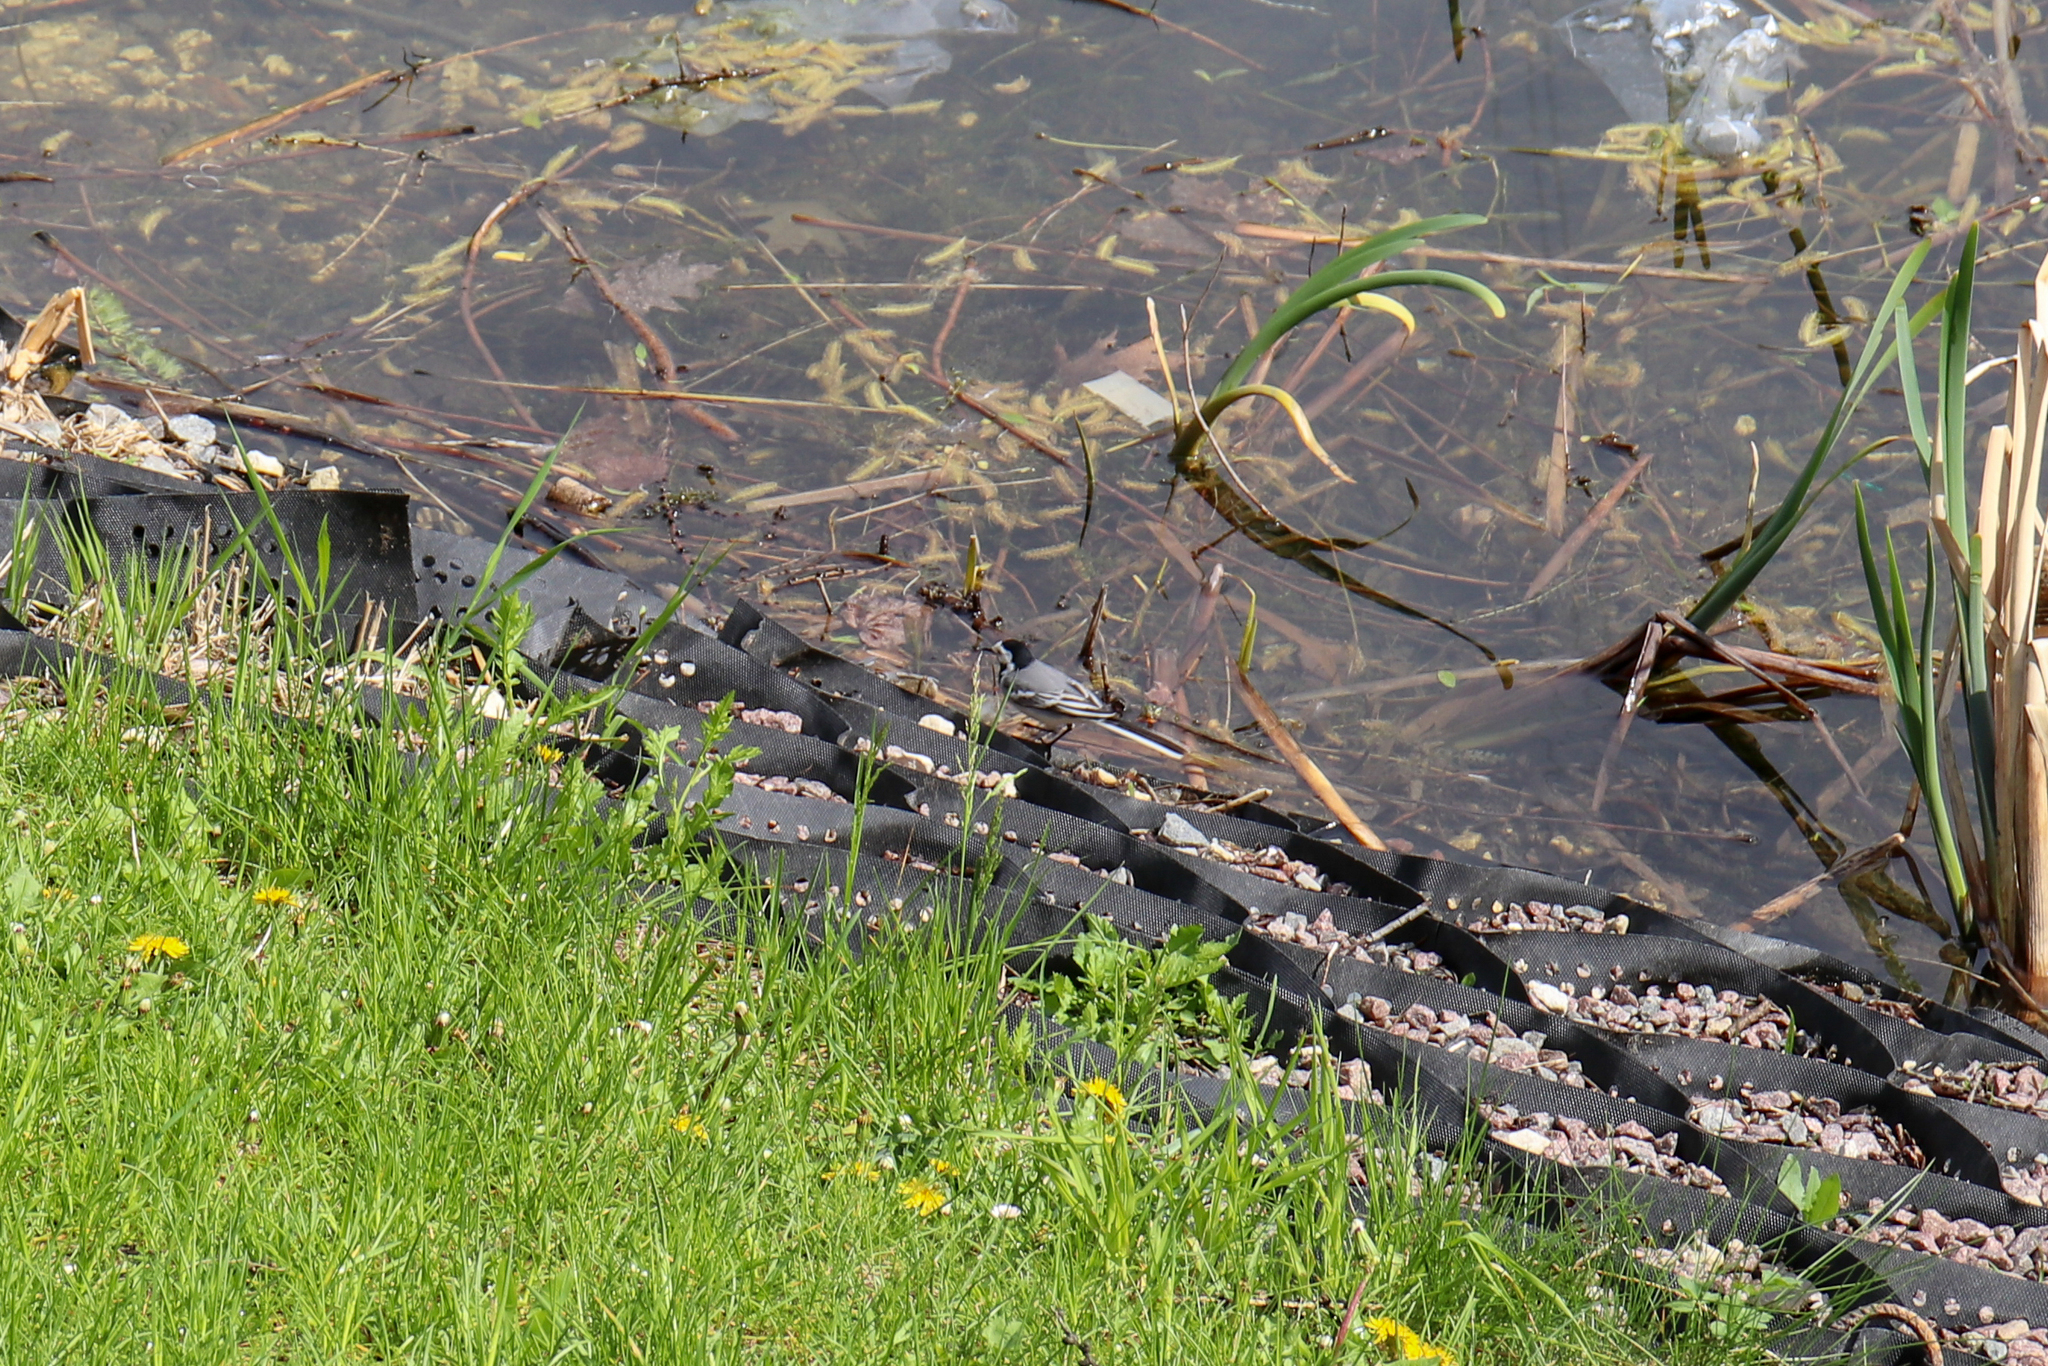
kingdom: Animalia
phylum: Chordata
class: Aves
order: Passeriformes
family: Motacillidae
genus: Motacilla
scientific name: Motacilla alba
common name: White wagtail
